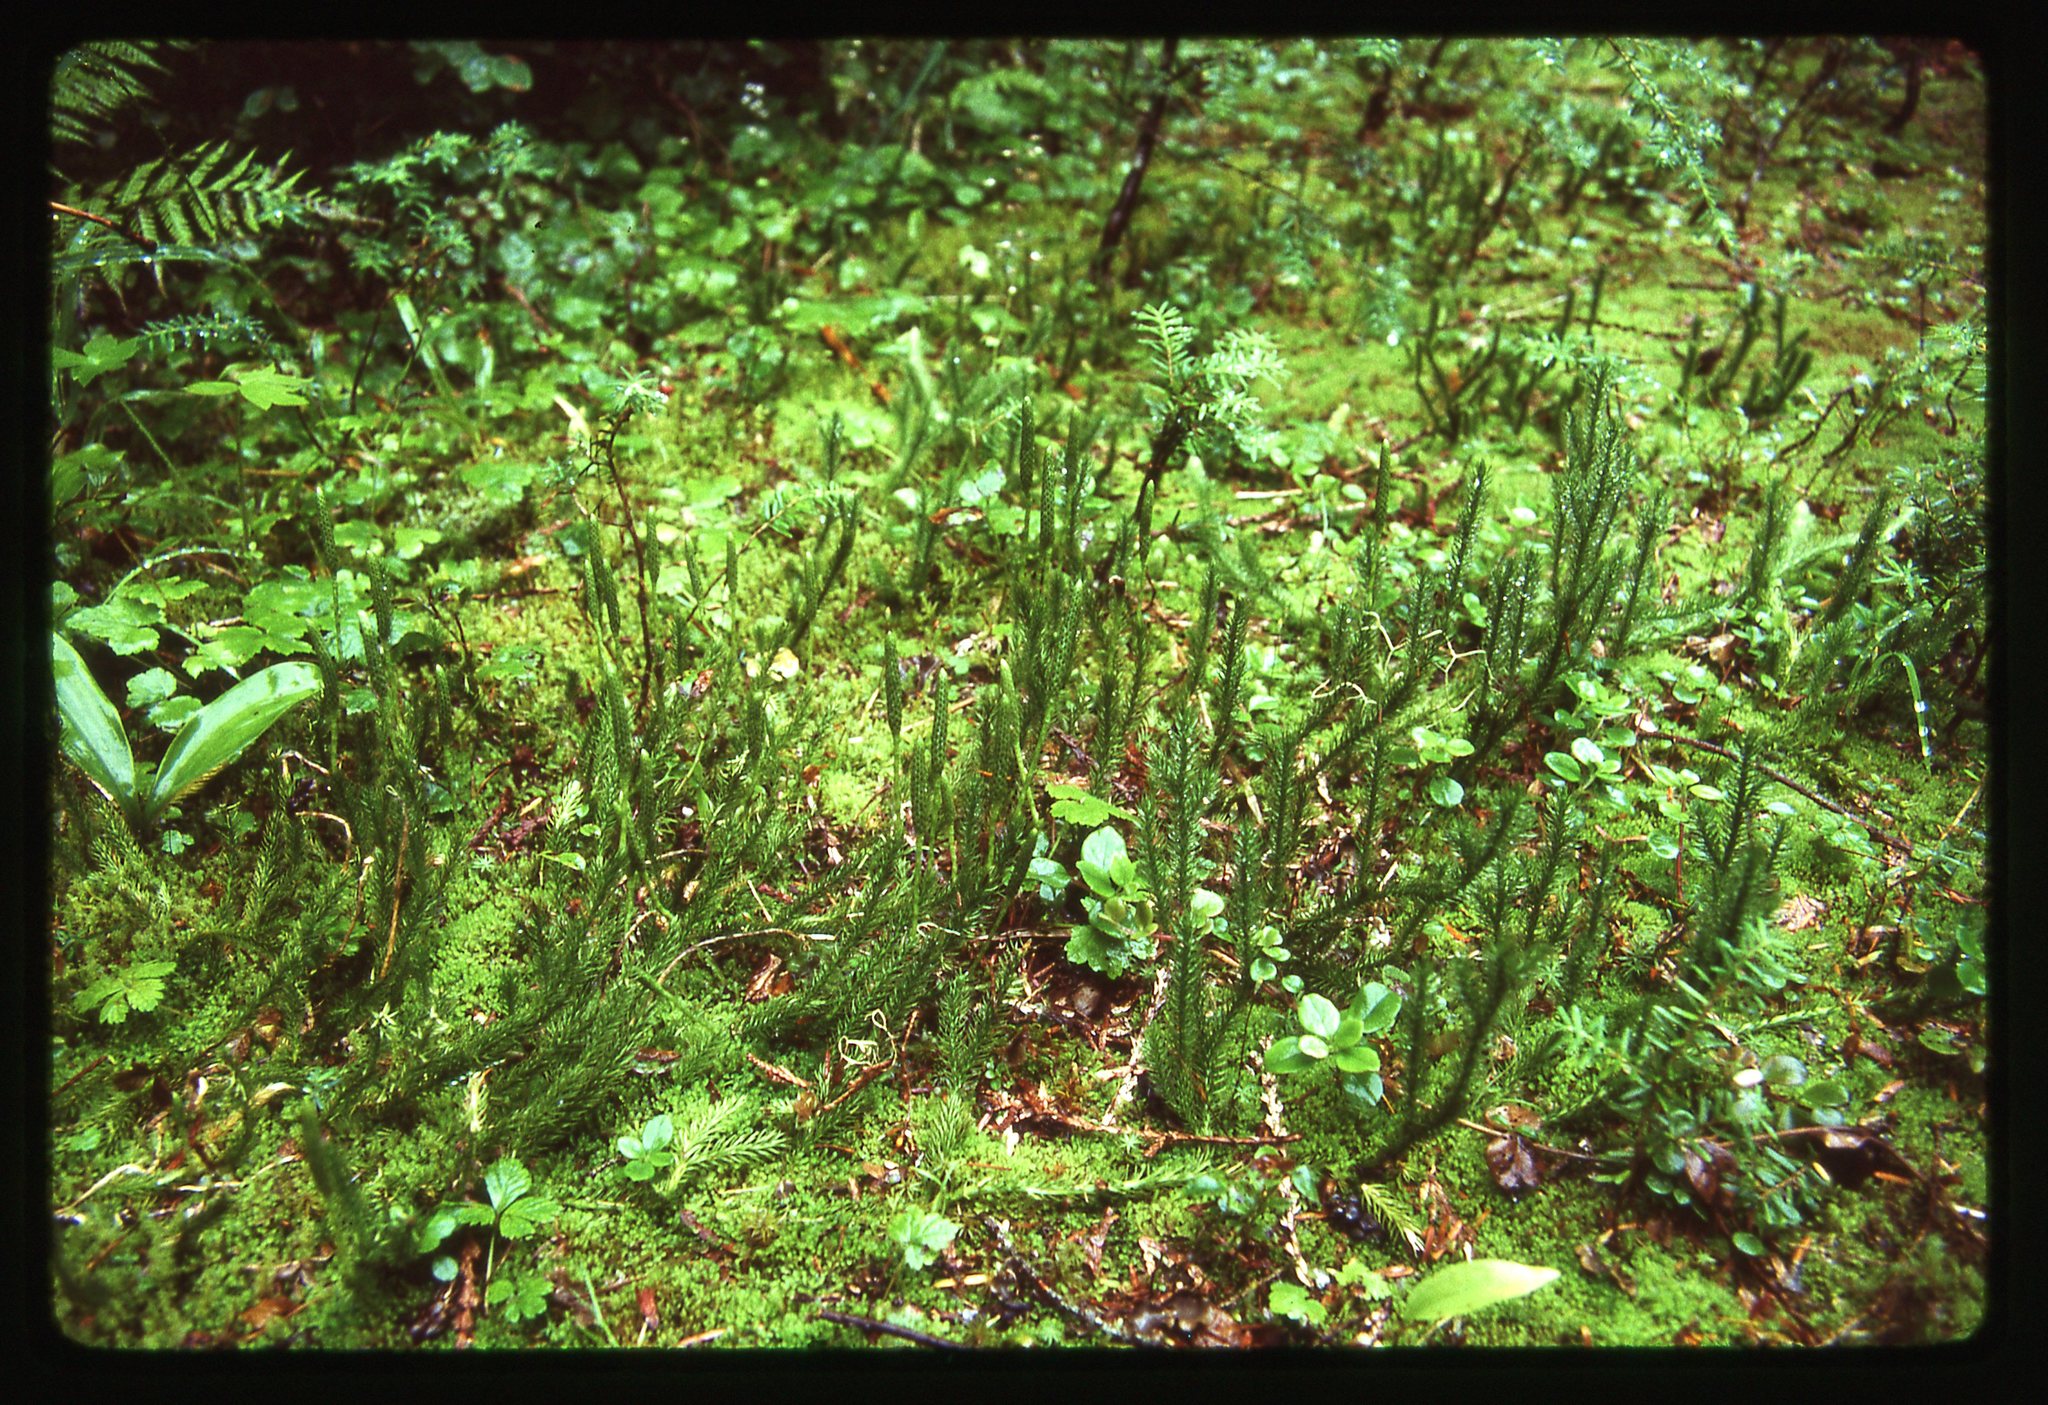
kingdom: Plantae
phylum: Tracheophyta
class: Lycopodiopsida
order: Lycopodiales
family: Lycopodiaceae
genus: Lycopodium
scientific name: Lycopodium lagopus
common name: One-cone clubmoss
